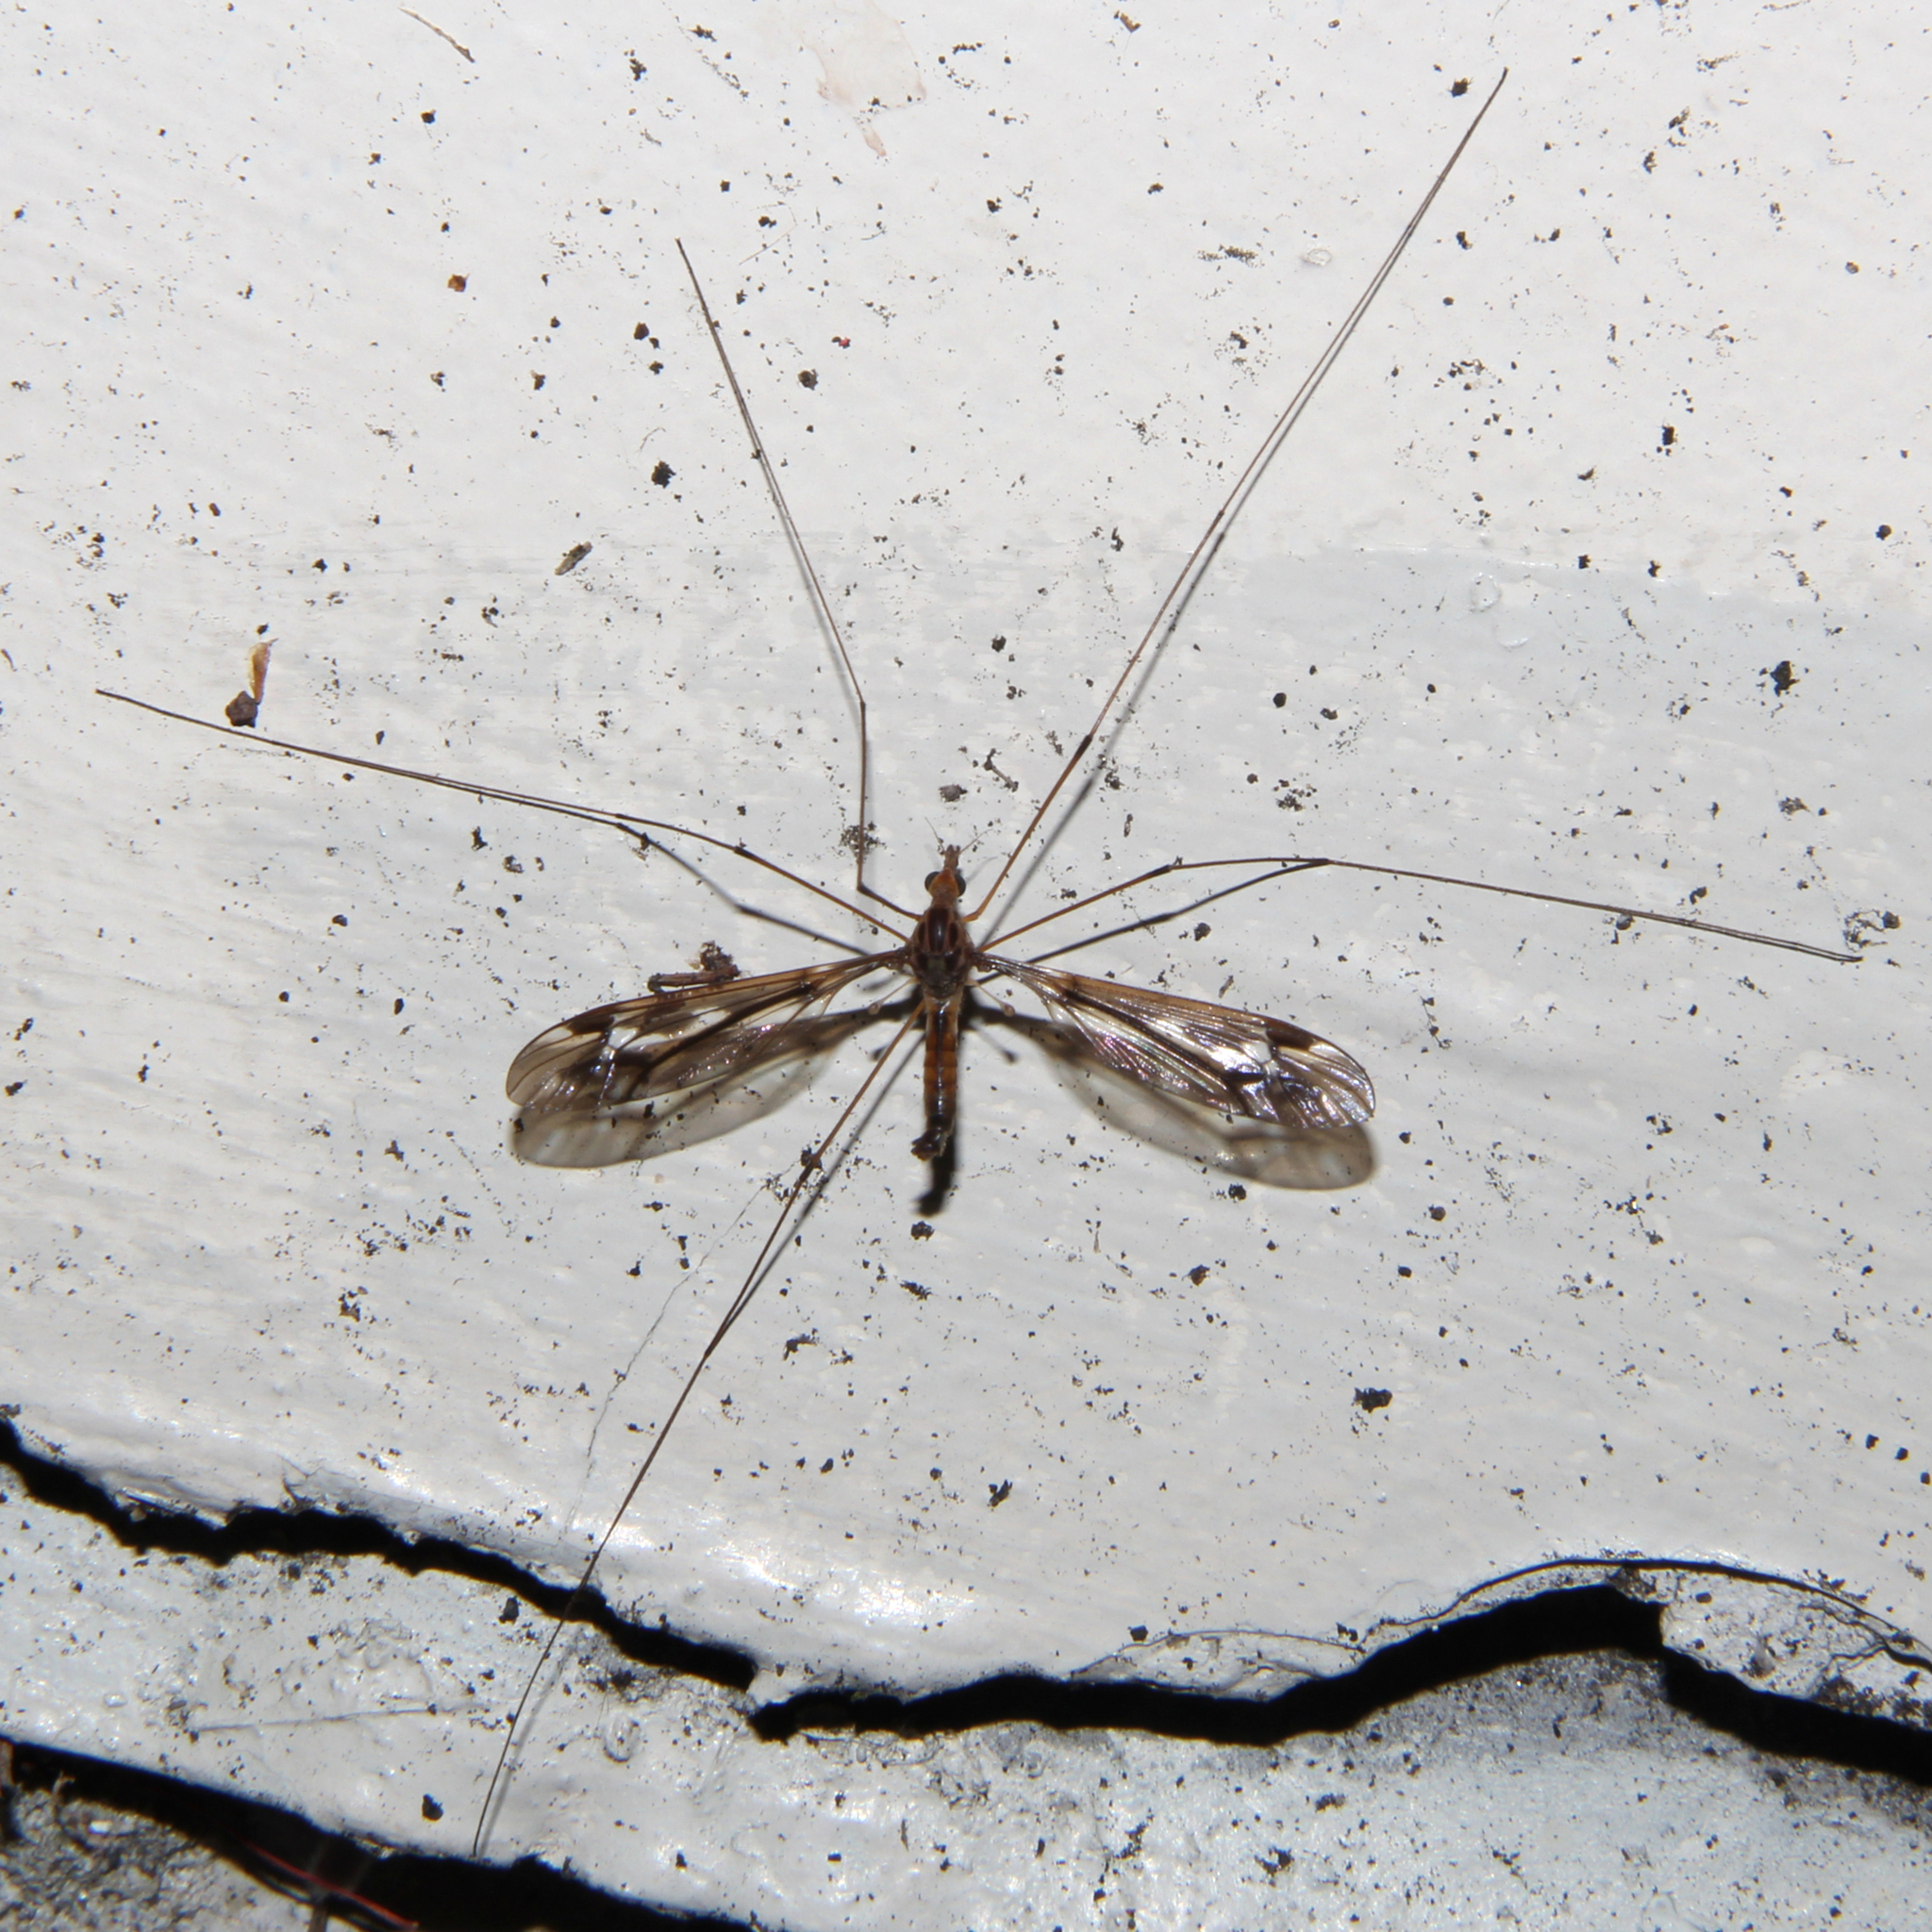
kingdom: Animalia
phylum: Arthropoda
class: Insecta
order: Diptera
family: Tipulidae
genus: Leptotarsus
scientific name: Leptotarsus huttoni
